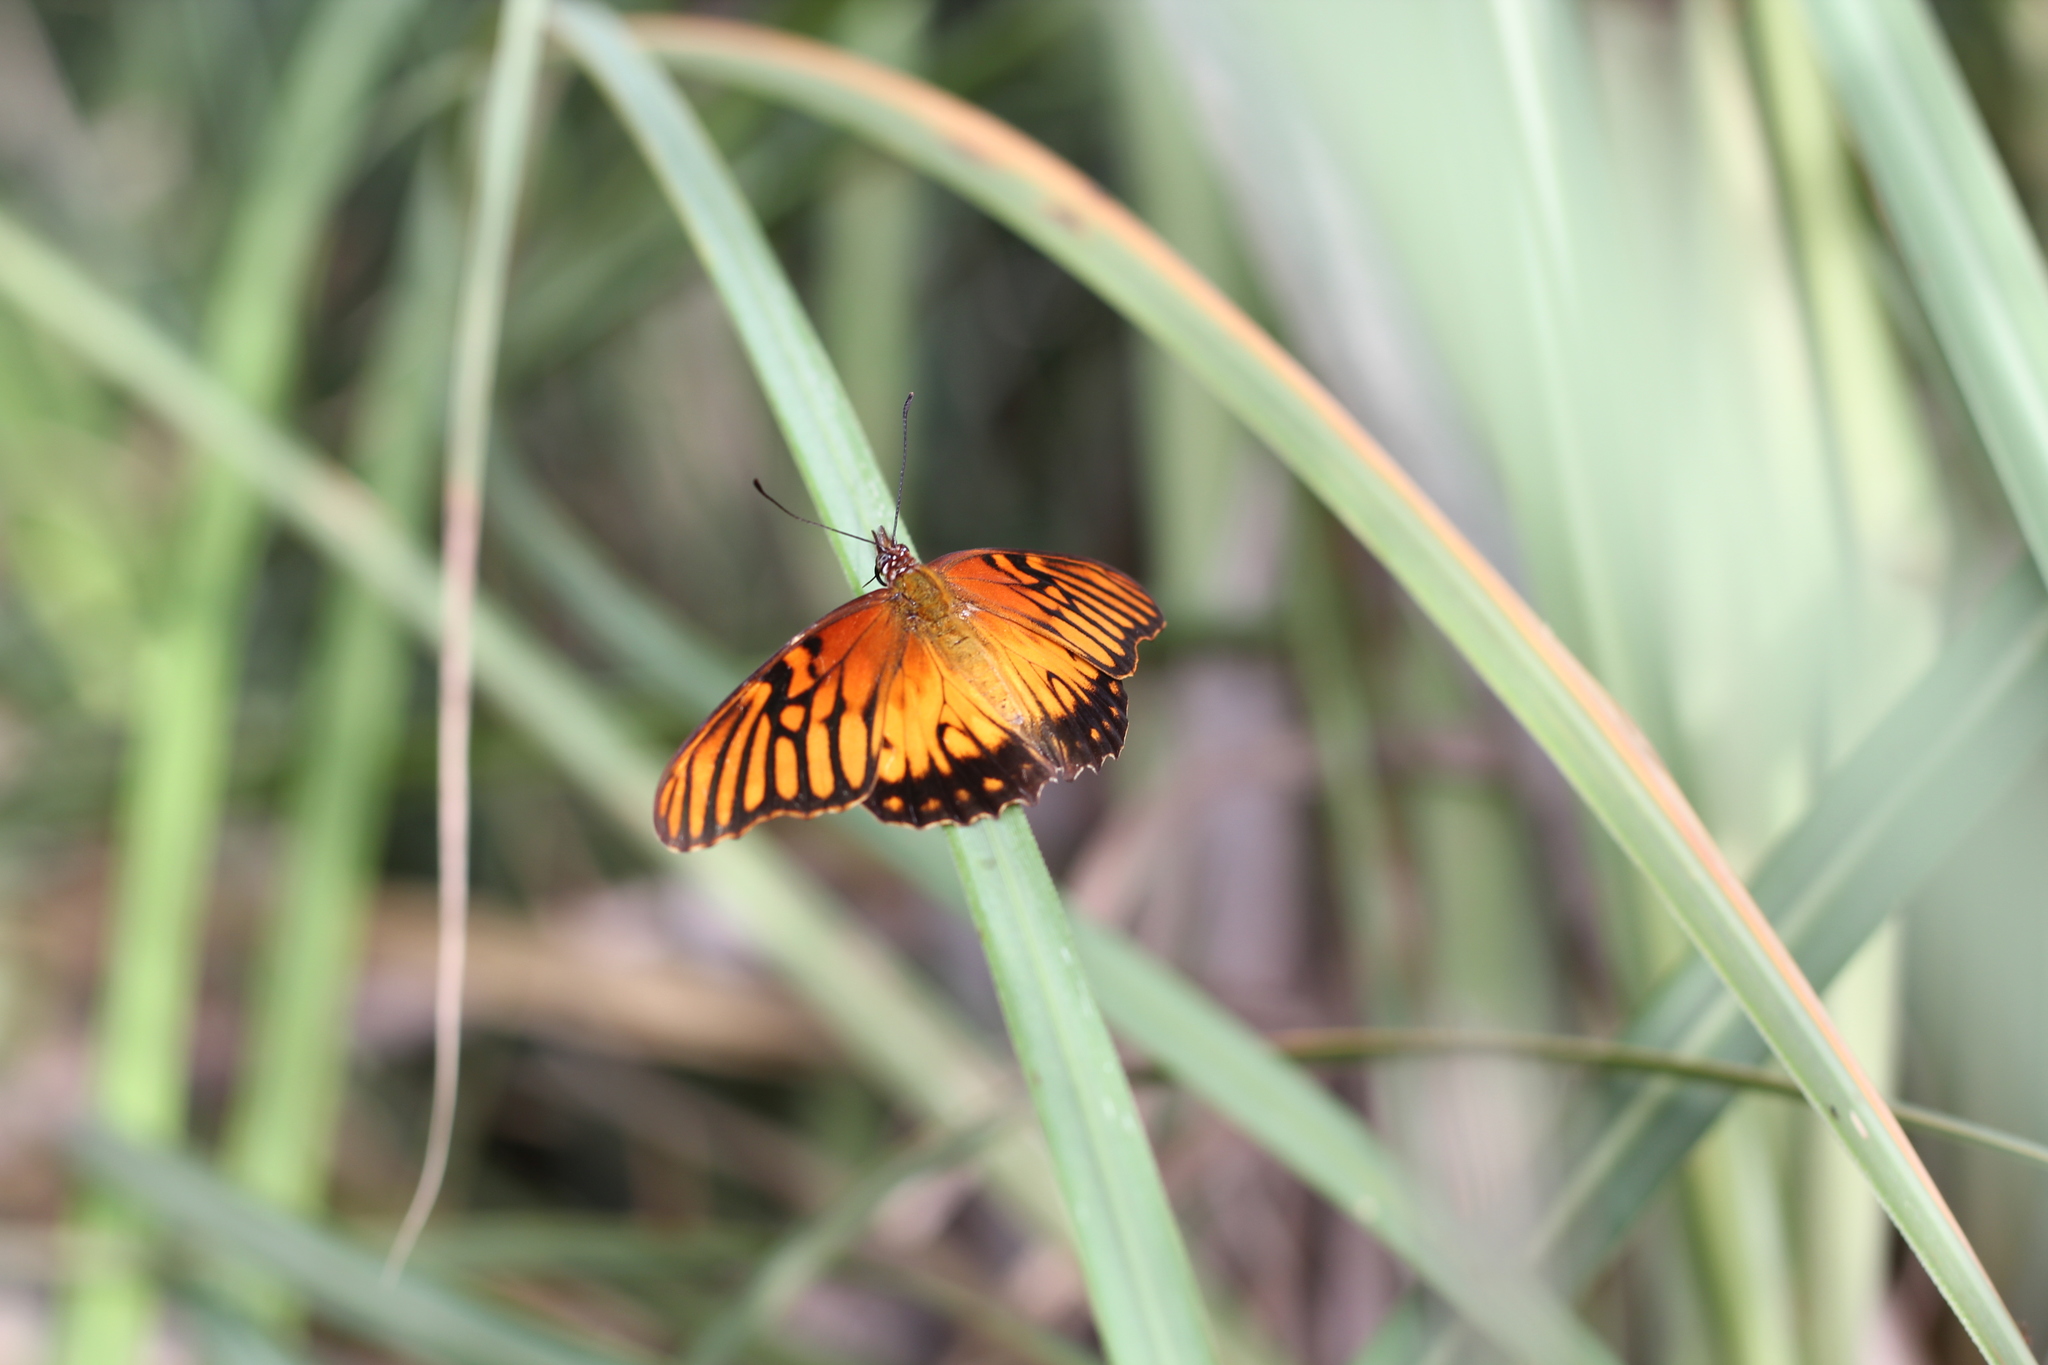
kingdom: Animalia
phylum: Arthropoda
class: Insecta
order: Lepidoptera
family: Nymphalidae
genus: Dione
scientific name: Dione moneta
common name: Mexican silverspot
